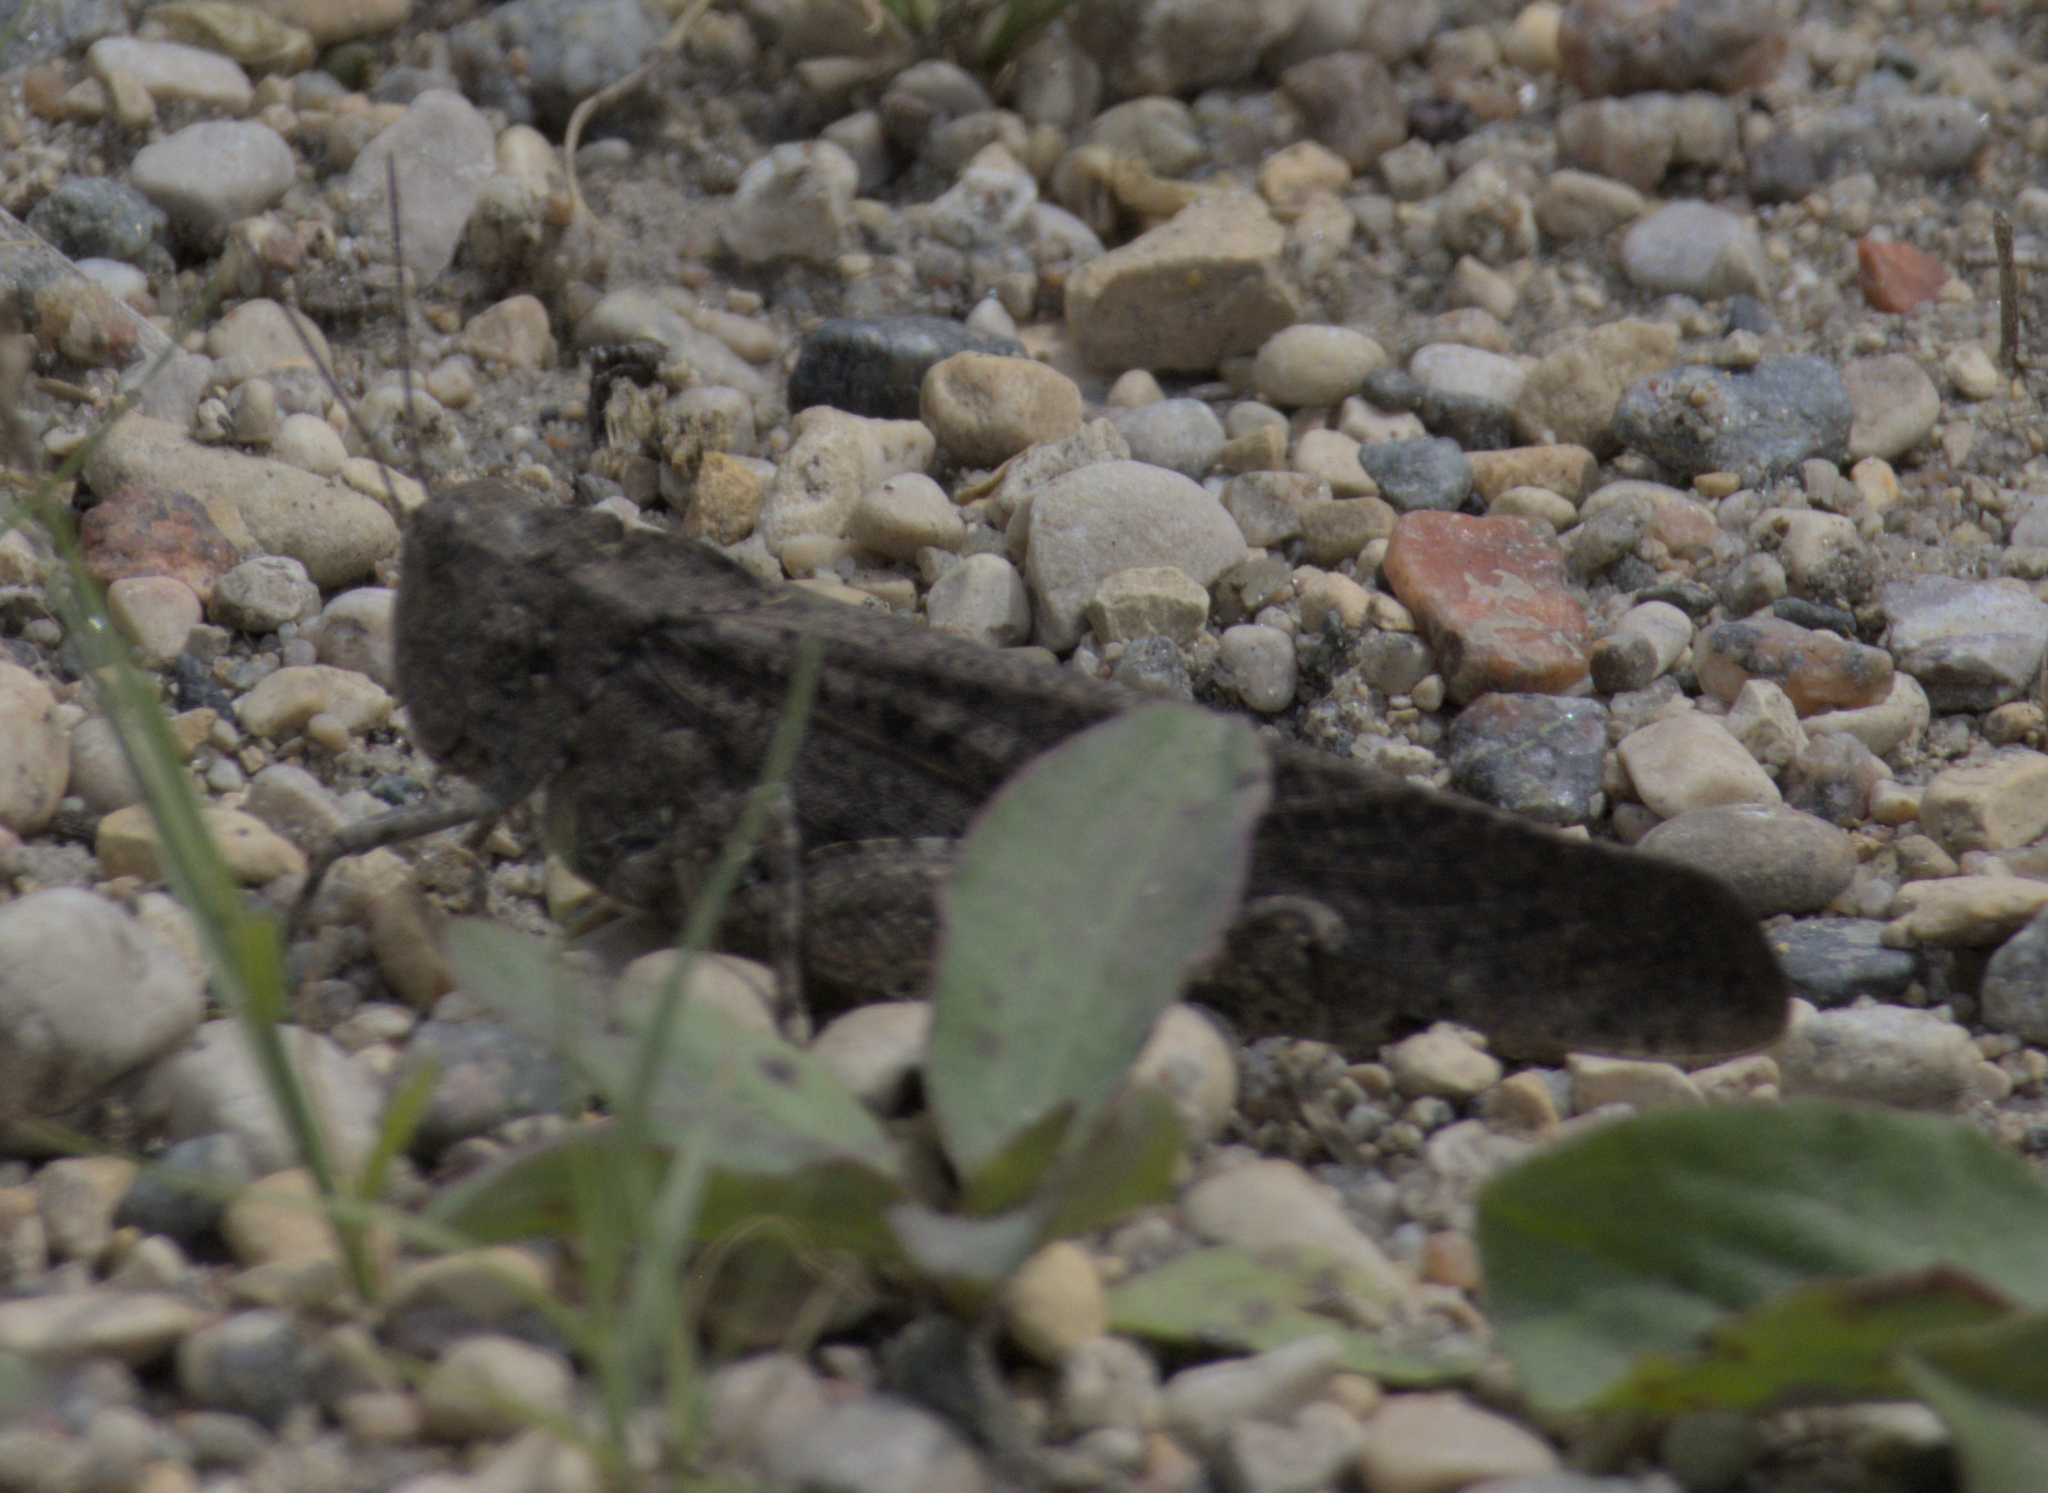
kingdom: Animalia
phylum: Arthropoda
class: Insecta
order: Orthoptera
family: Acrididae
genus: Dissosteira
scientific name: Dissosteira carolina
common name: Carolina grasshopper
